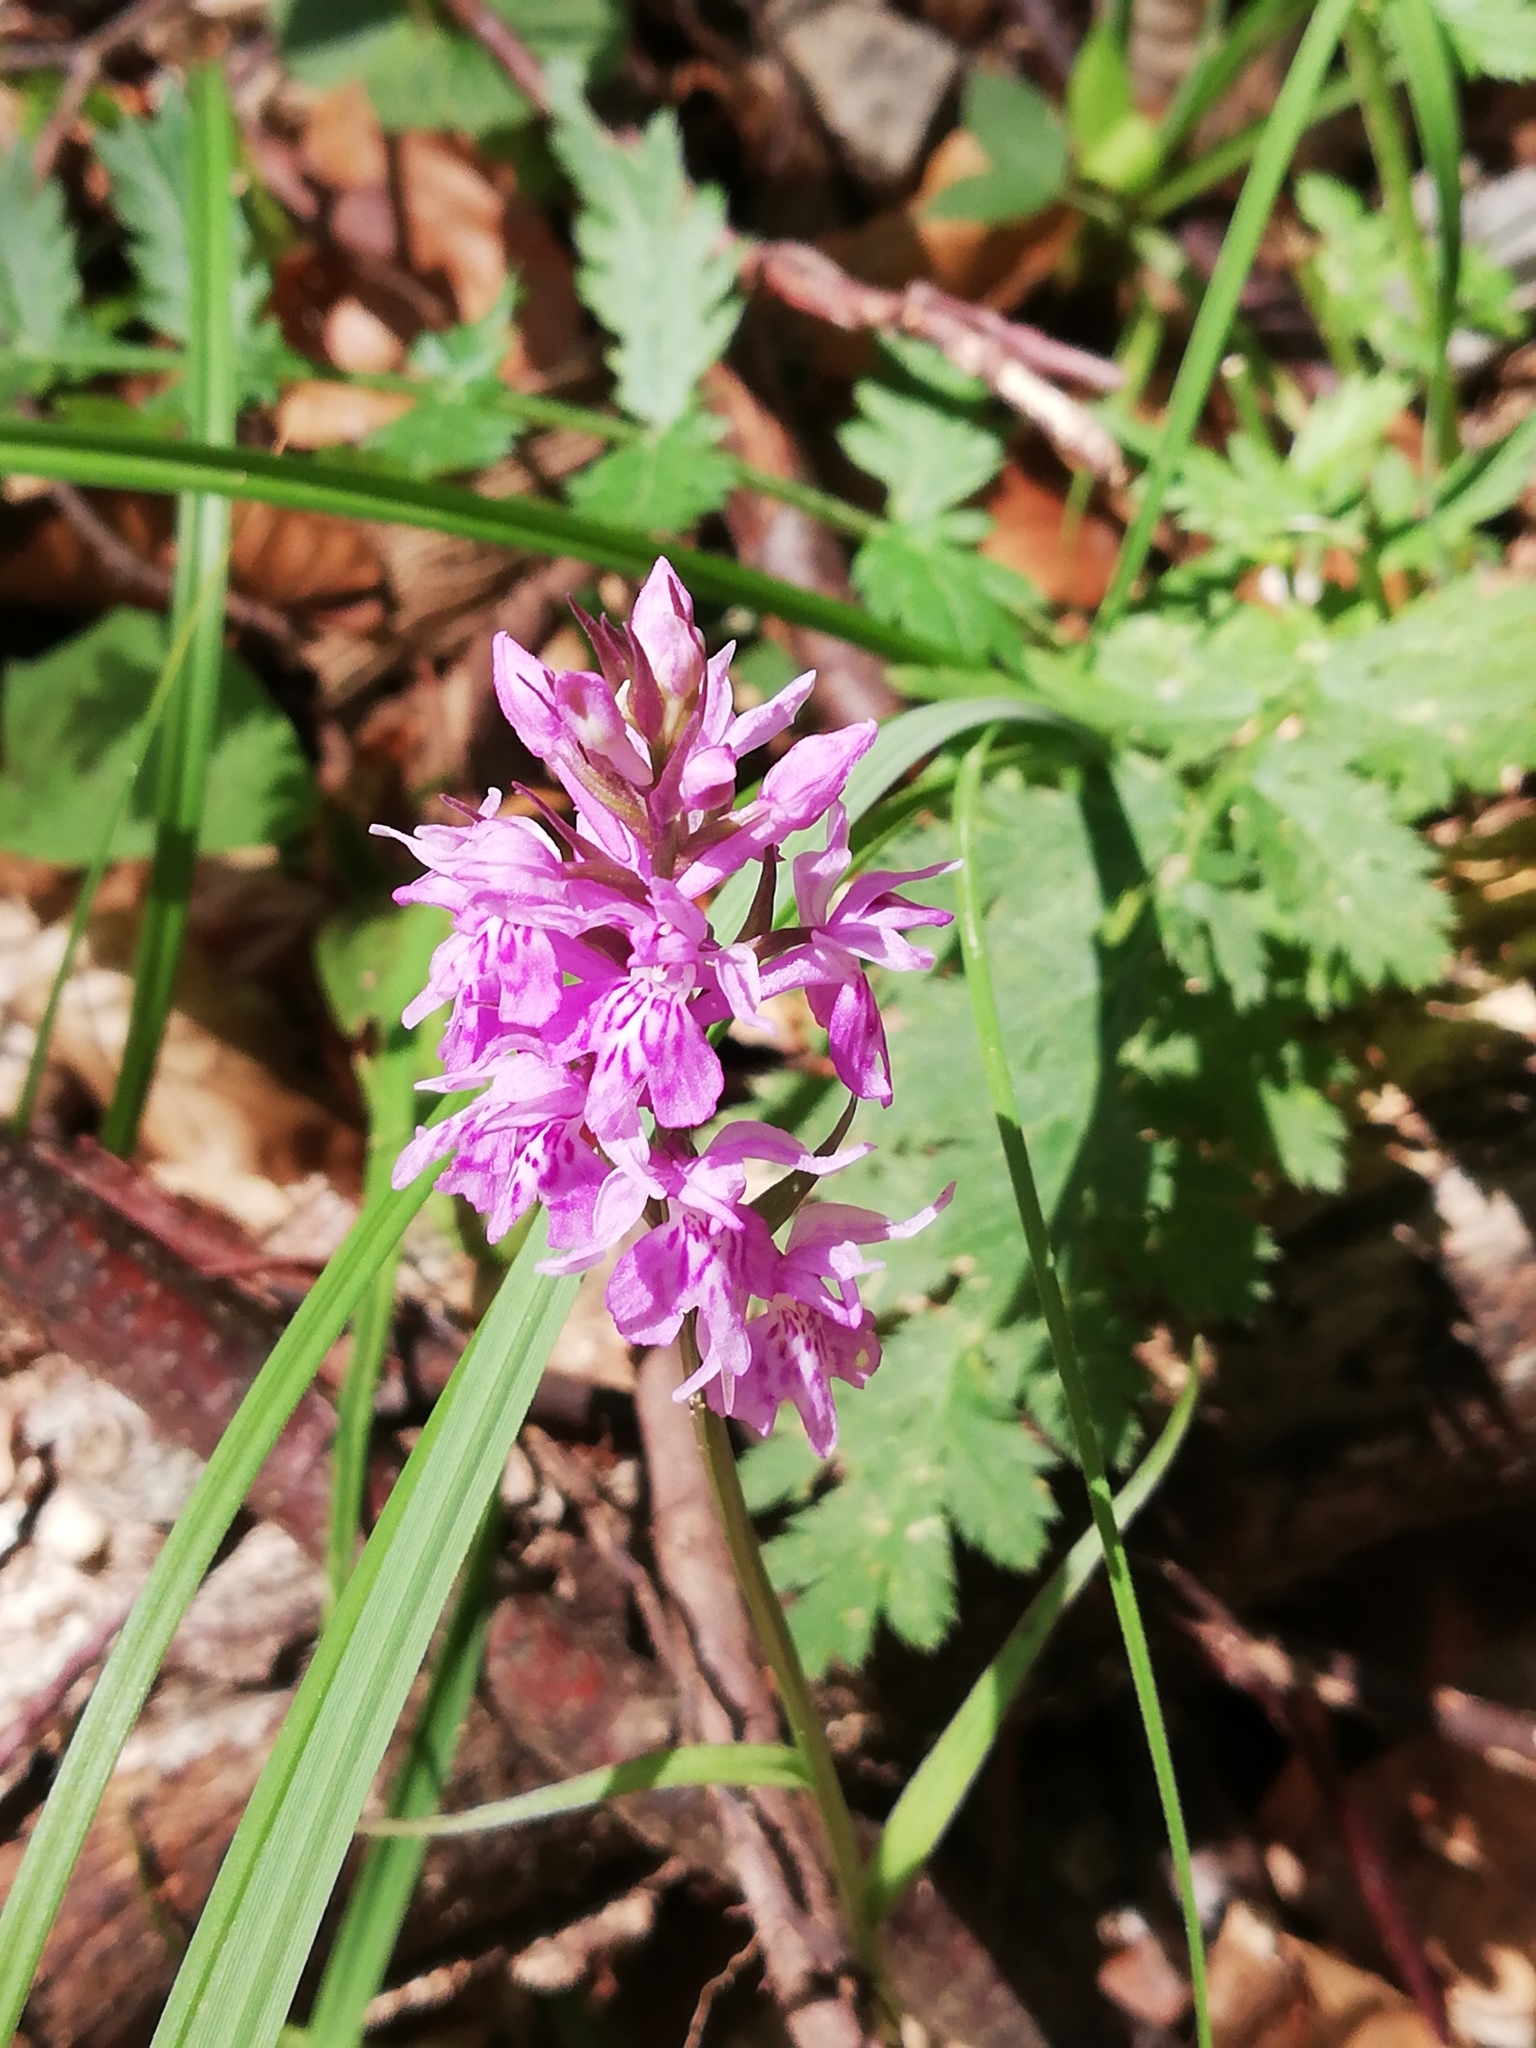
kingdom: Plantae
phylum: Tracheophyta
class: Liliopsida
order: Asparagales
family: Orchidaceae
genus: Dactylorhiza
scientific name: Dactylorhiza maculata
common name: Heath spotted-orchid
